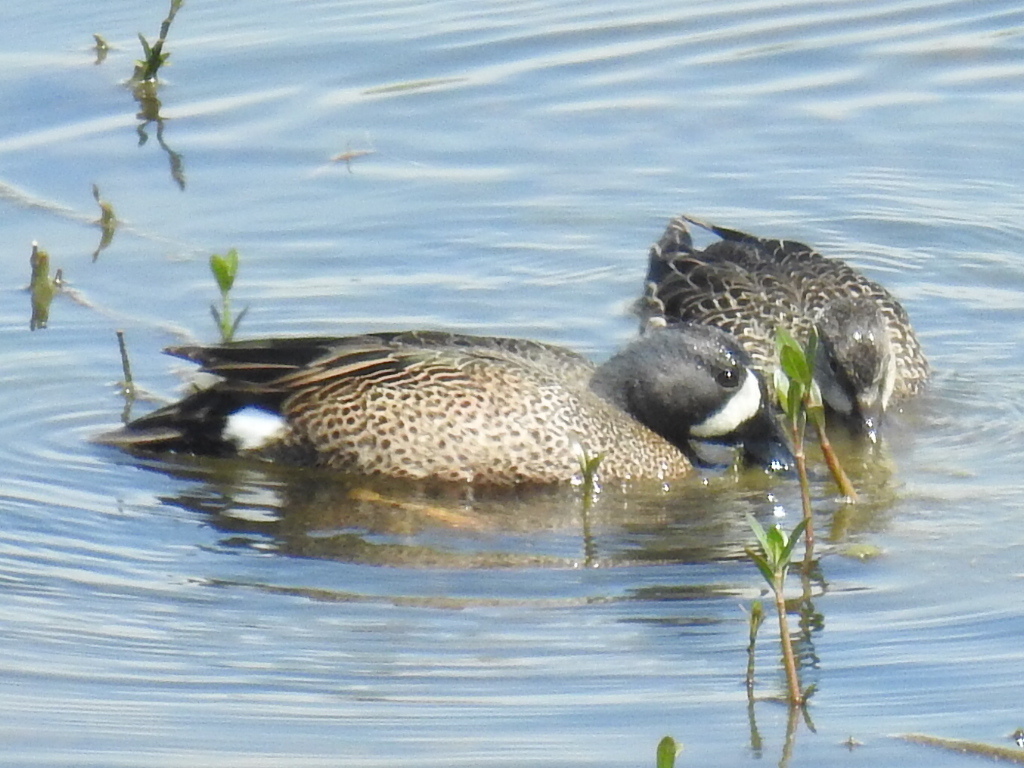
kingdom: Animalia
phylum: Chordata
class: Aves
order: Anseriformes
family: Anatidae
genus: Spatula
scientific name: Spatula discors
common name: Blue-winged teal
